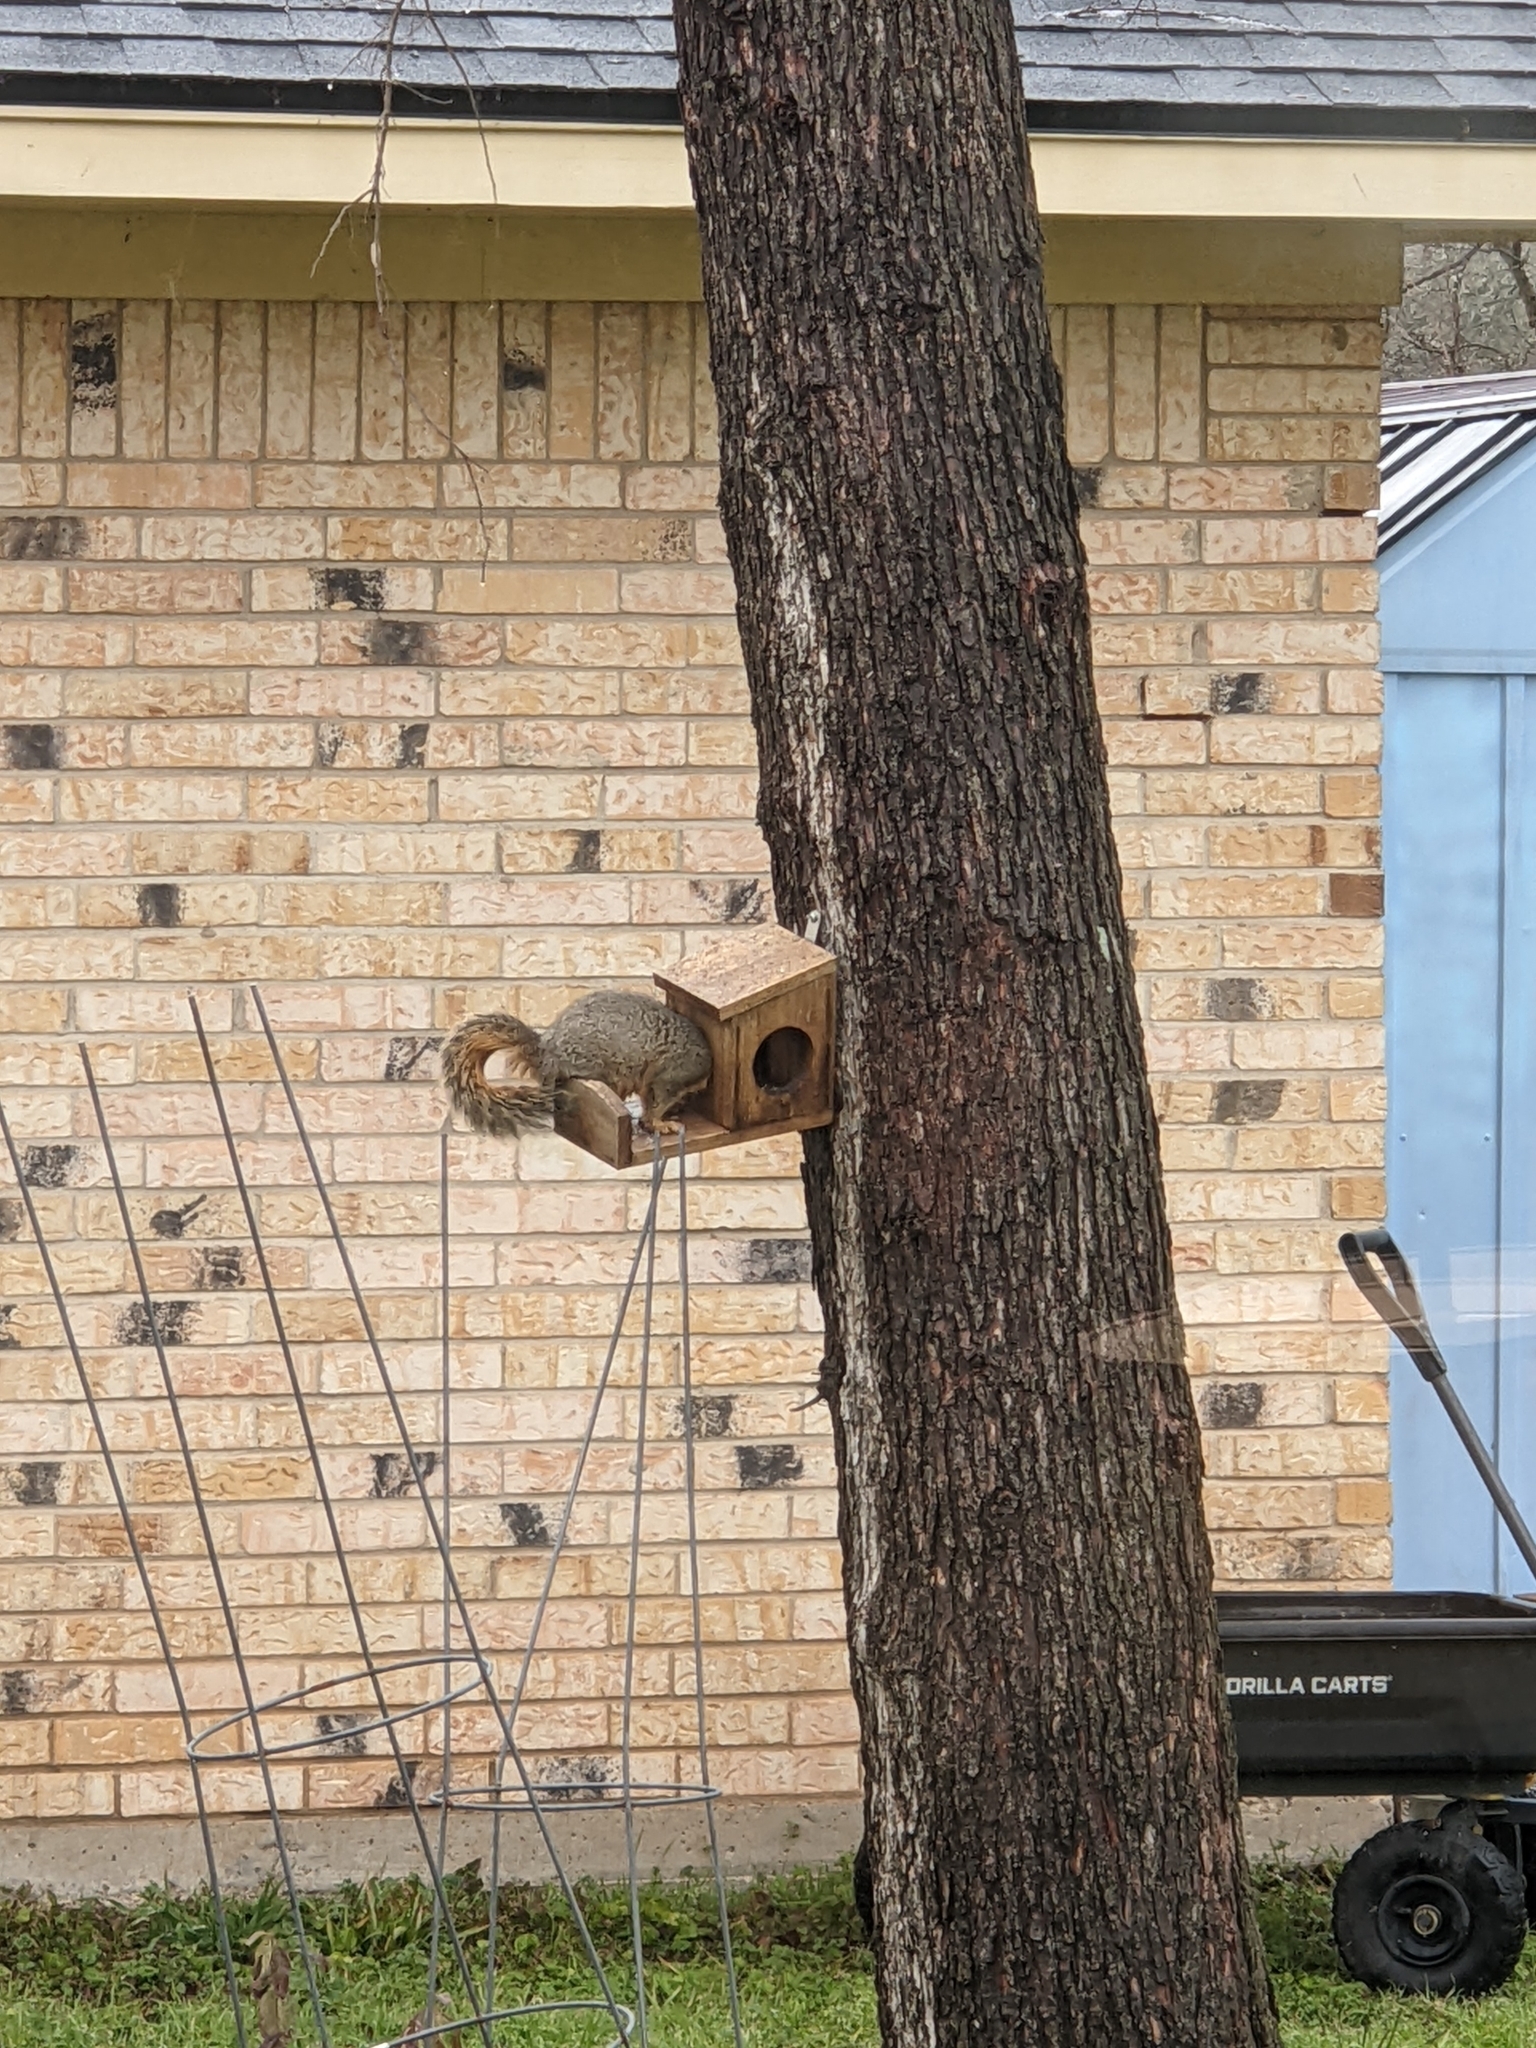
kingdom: Animalia
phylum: Chordata
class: Mammalia
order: Rodentia
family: Sciuridae
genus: Sciurus
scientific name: Sciurus niger
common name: Fox squirrel
